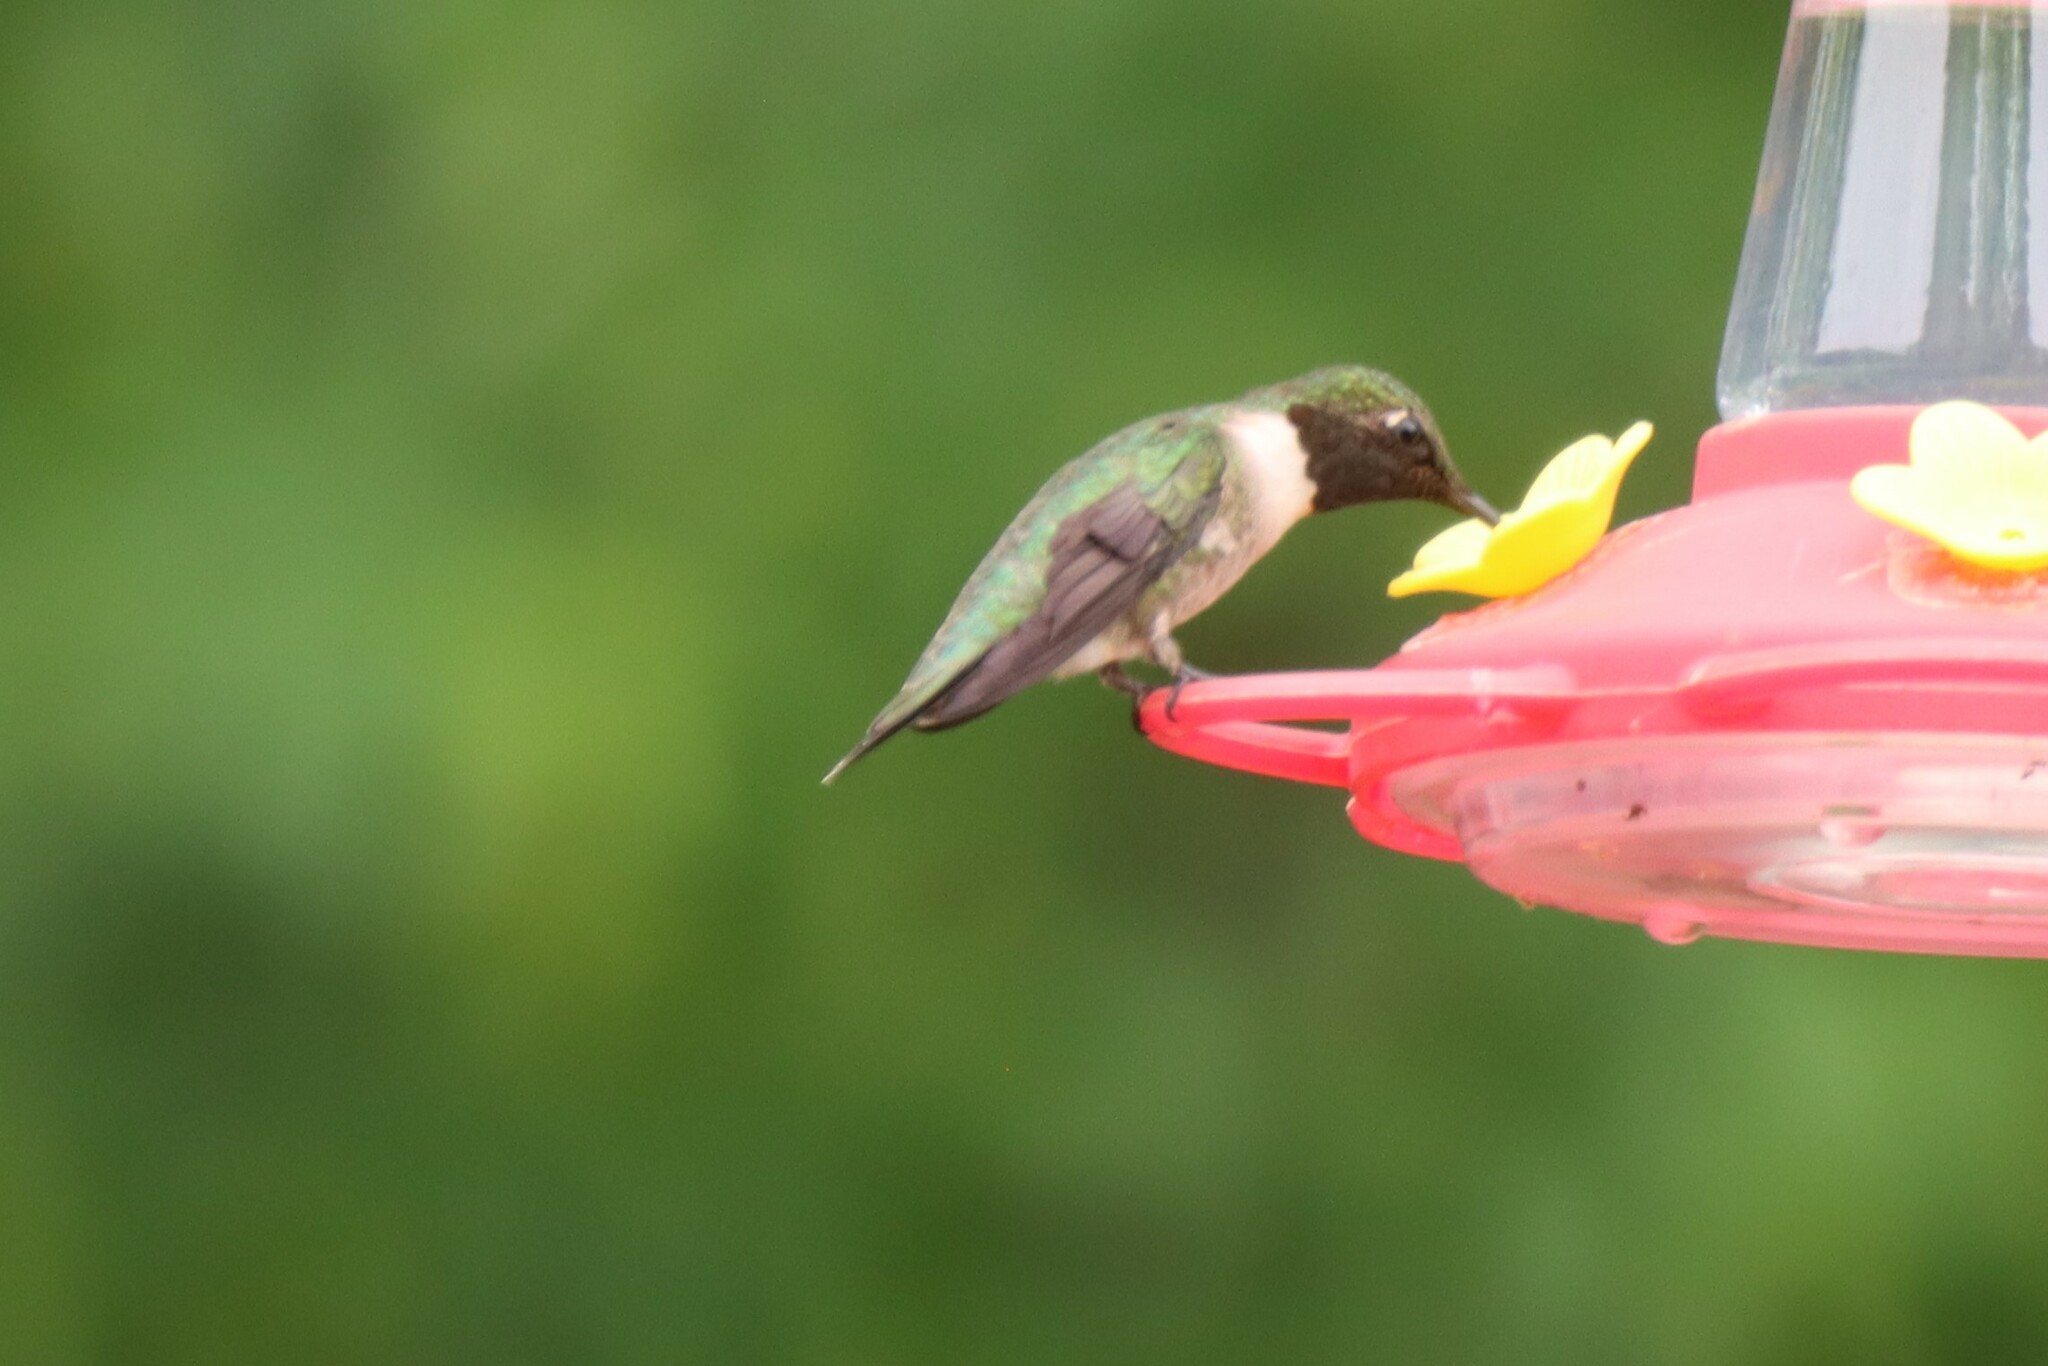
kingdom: Animalia
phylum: Chordata
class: Aves
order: Apodiformes
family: Trochilidae
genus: Archilochus
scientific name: Archilochus colubris
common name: Ruby-throated hummingbird
